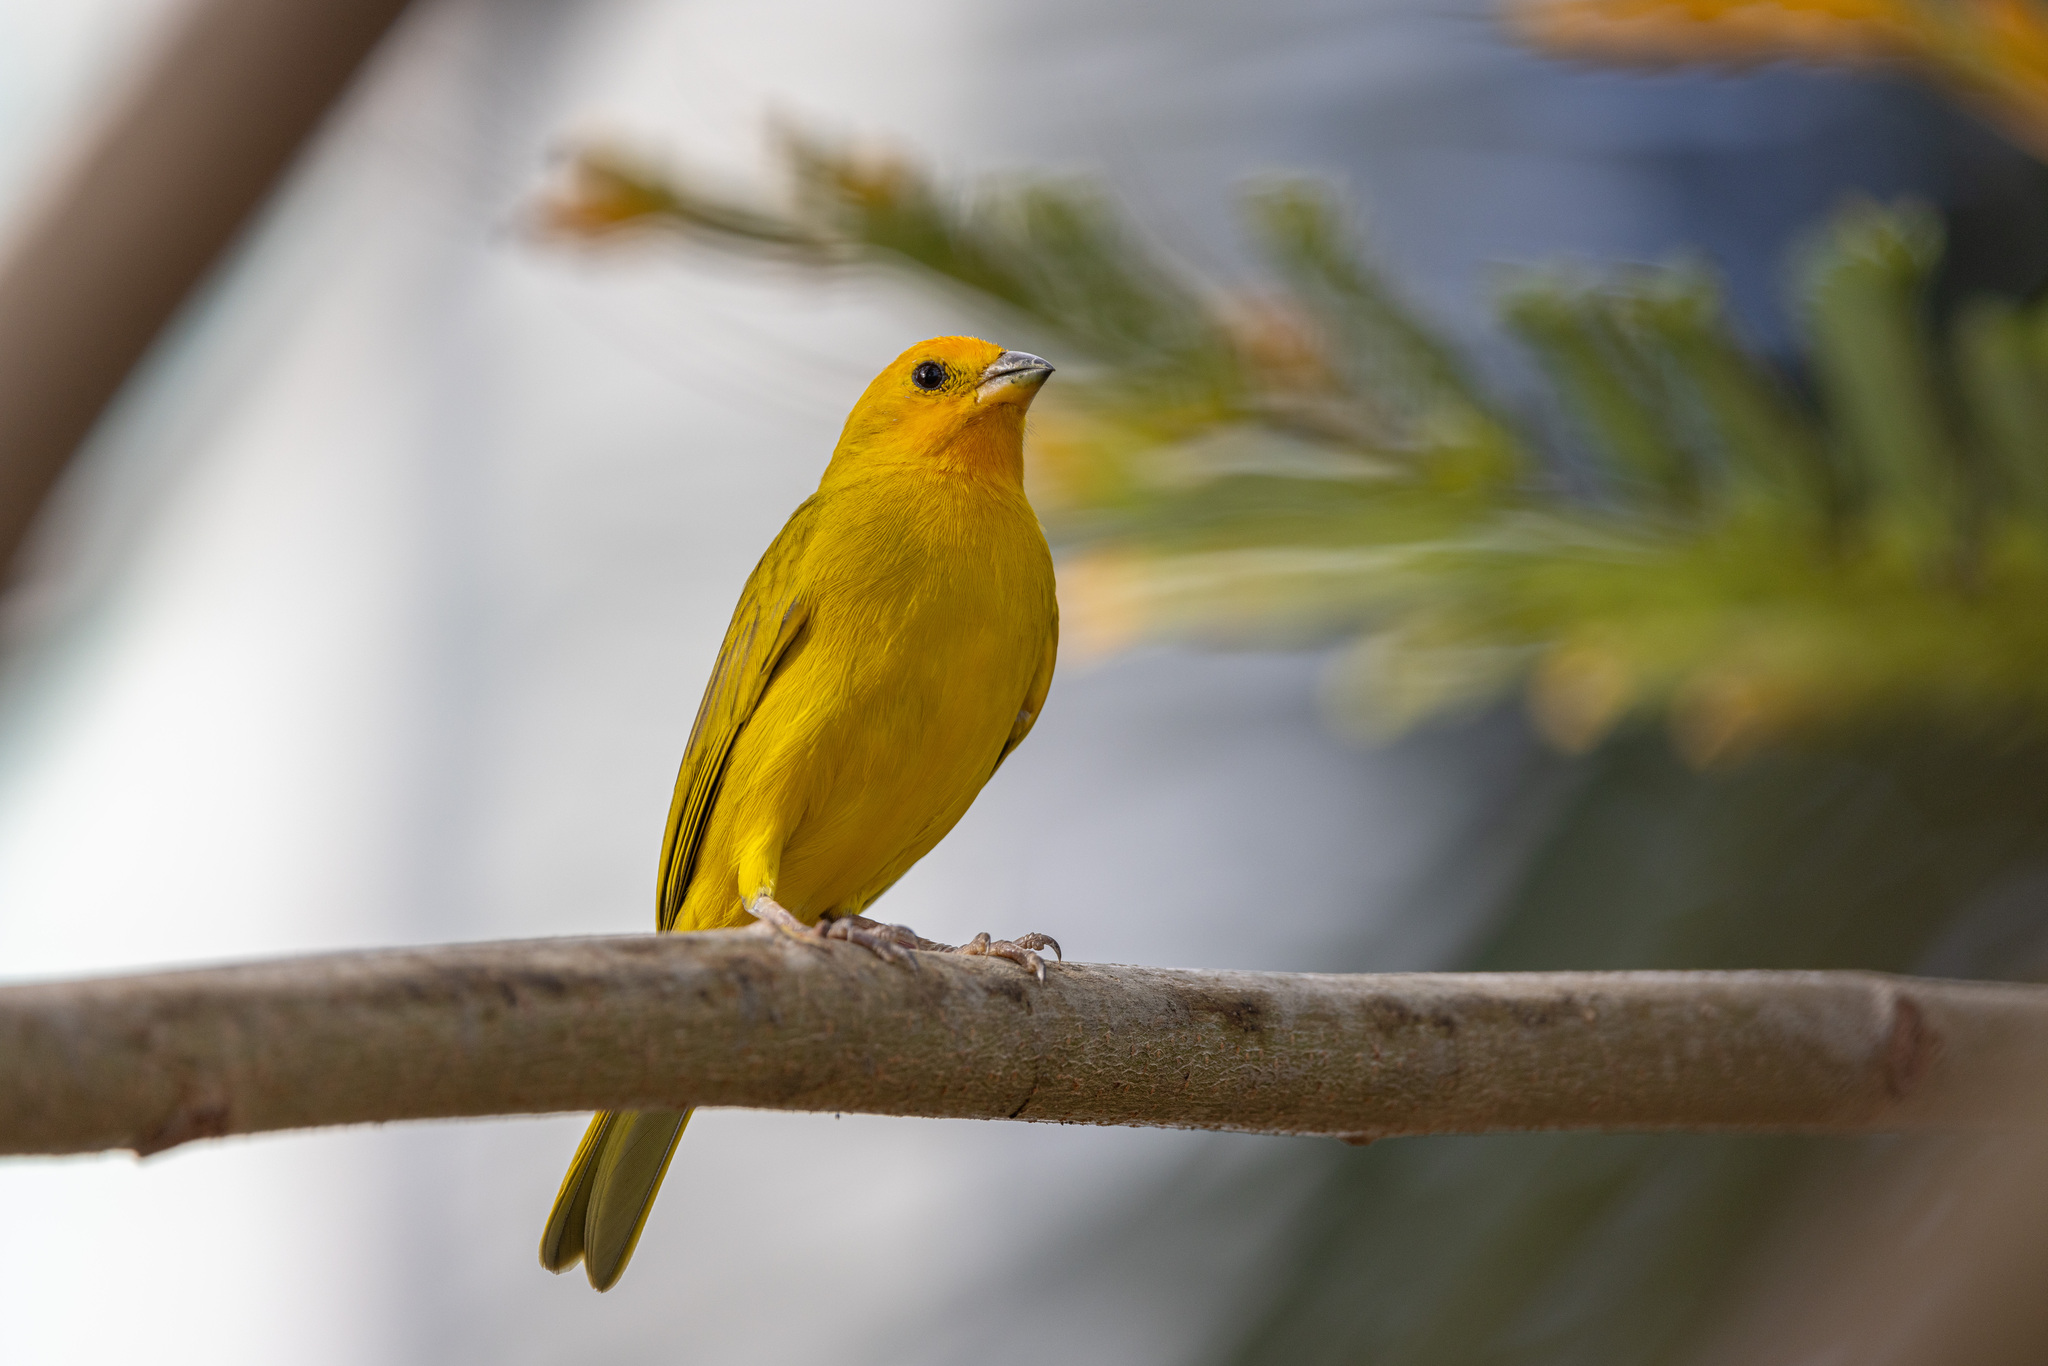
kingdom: Animalia
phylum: Chordata
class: Aves
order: Passeriformes
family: Thraupidae
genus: Sicalis
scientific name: Sicalis flaveola
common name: Saffron finch
